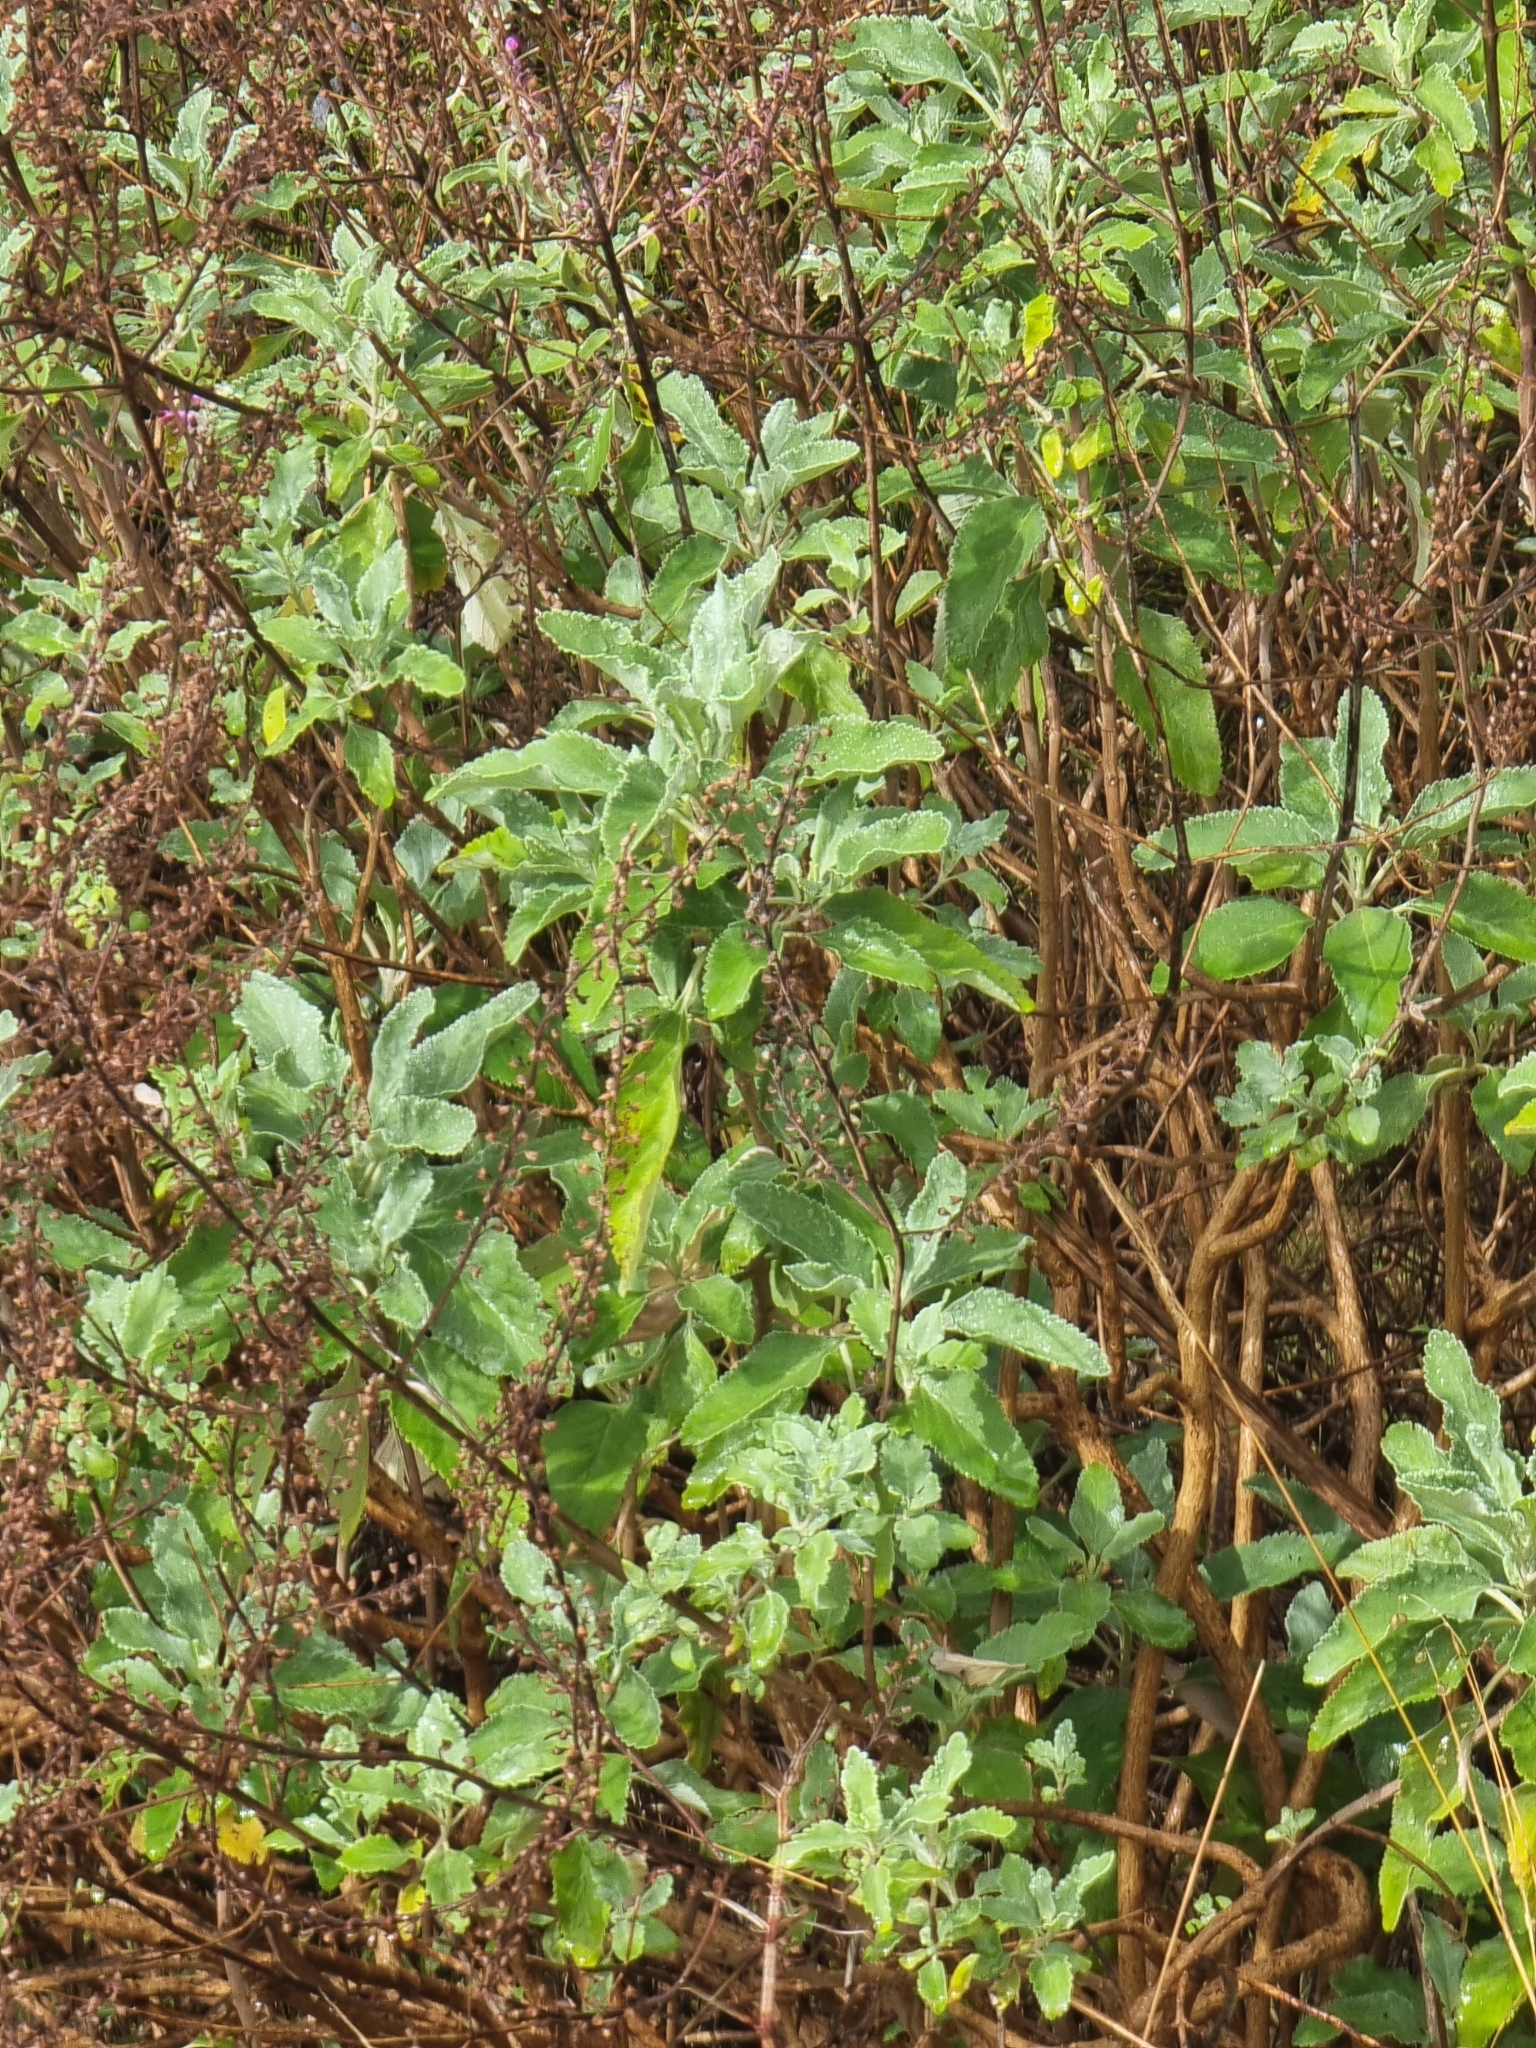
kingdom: Plantae
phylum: Tracheophyta
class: Magnoliopsida
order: Lamiales
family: Lamiaceae
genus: Teucrium
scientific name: Teucrium betonicum
